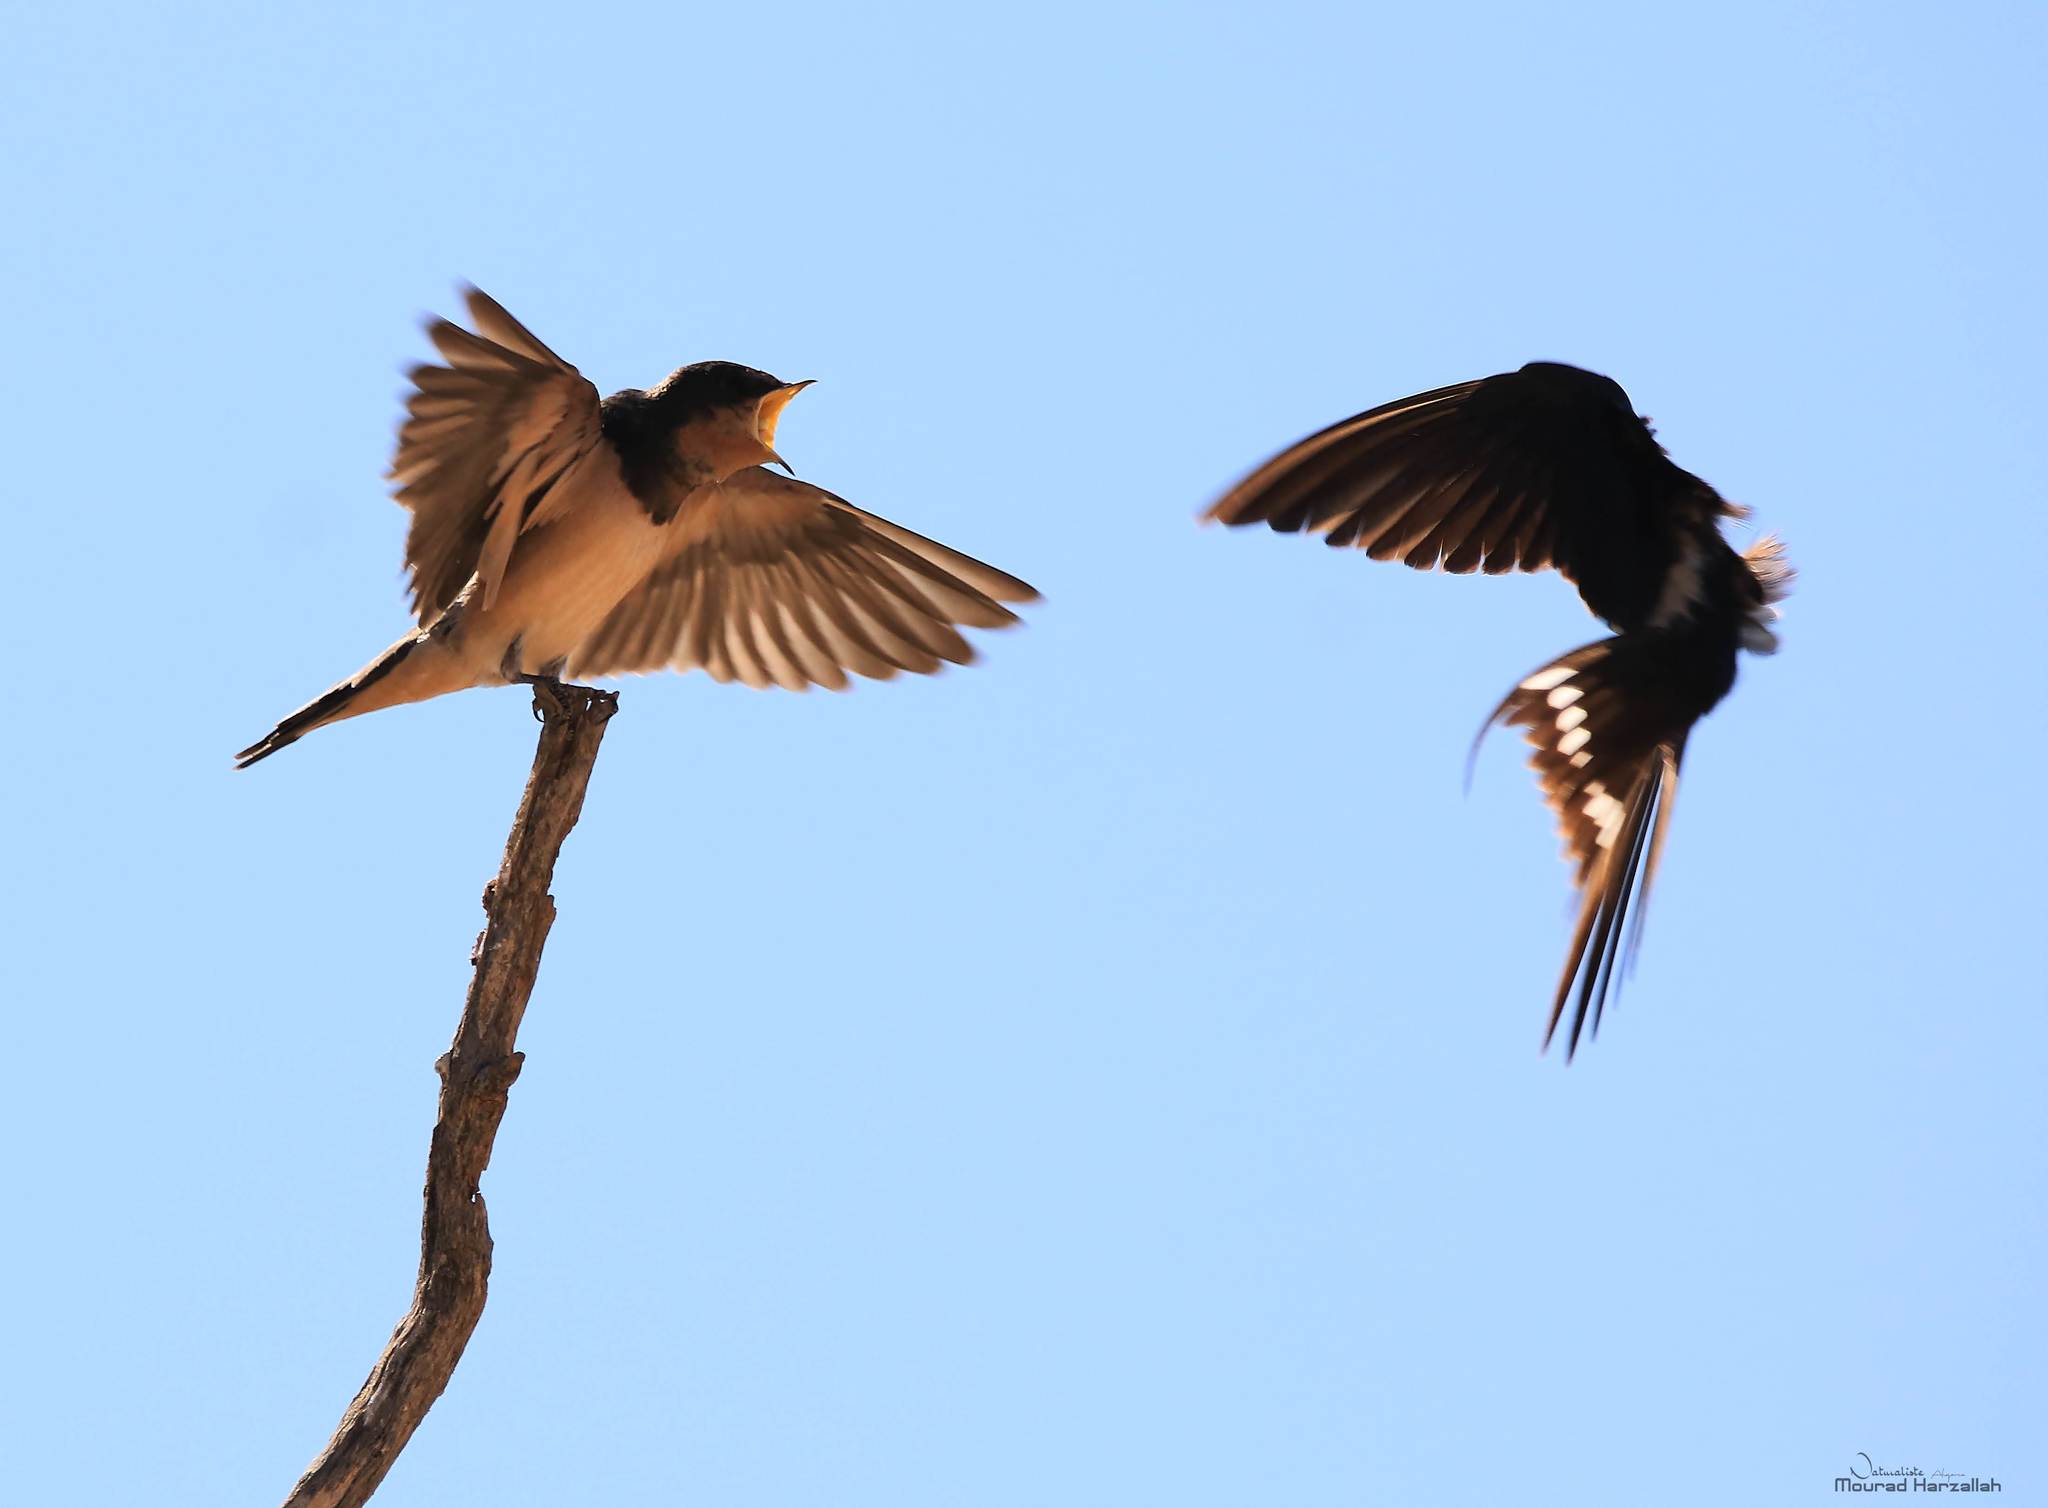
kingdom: Animalia
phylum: Chordata
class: Aves
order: Passeriformes
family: Hirundinidae
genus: Hirundo
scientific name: Hirundo rustica
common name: Barn swallow
